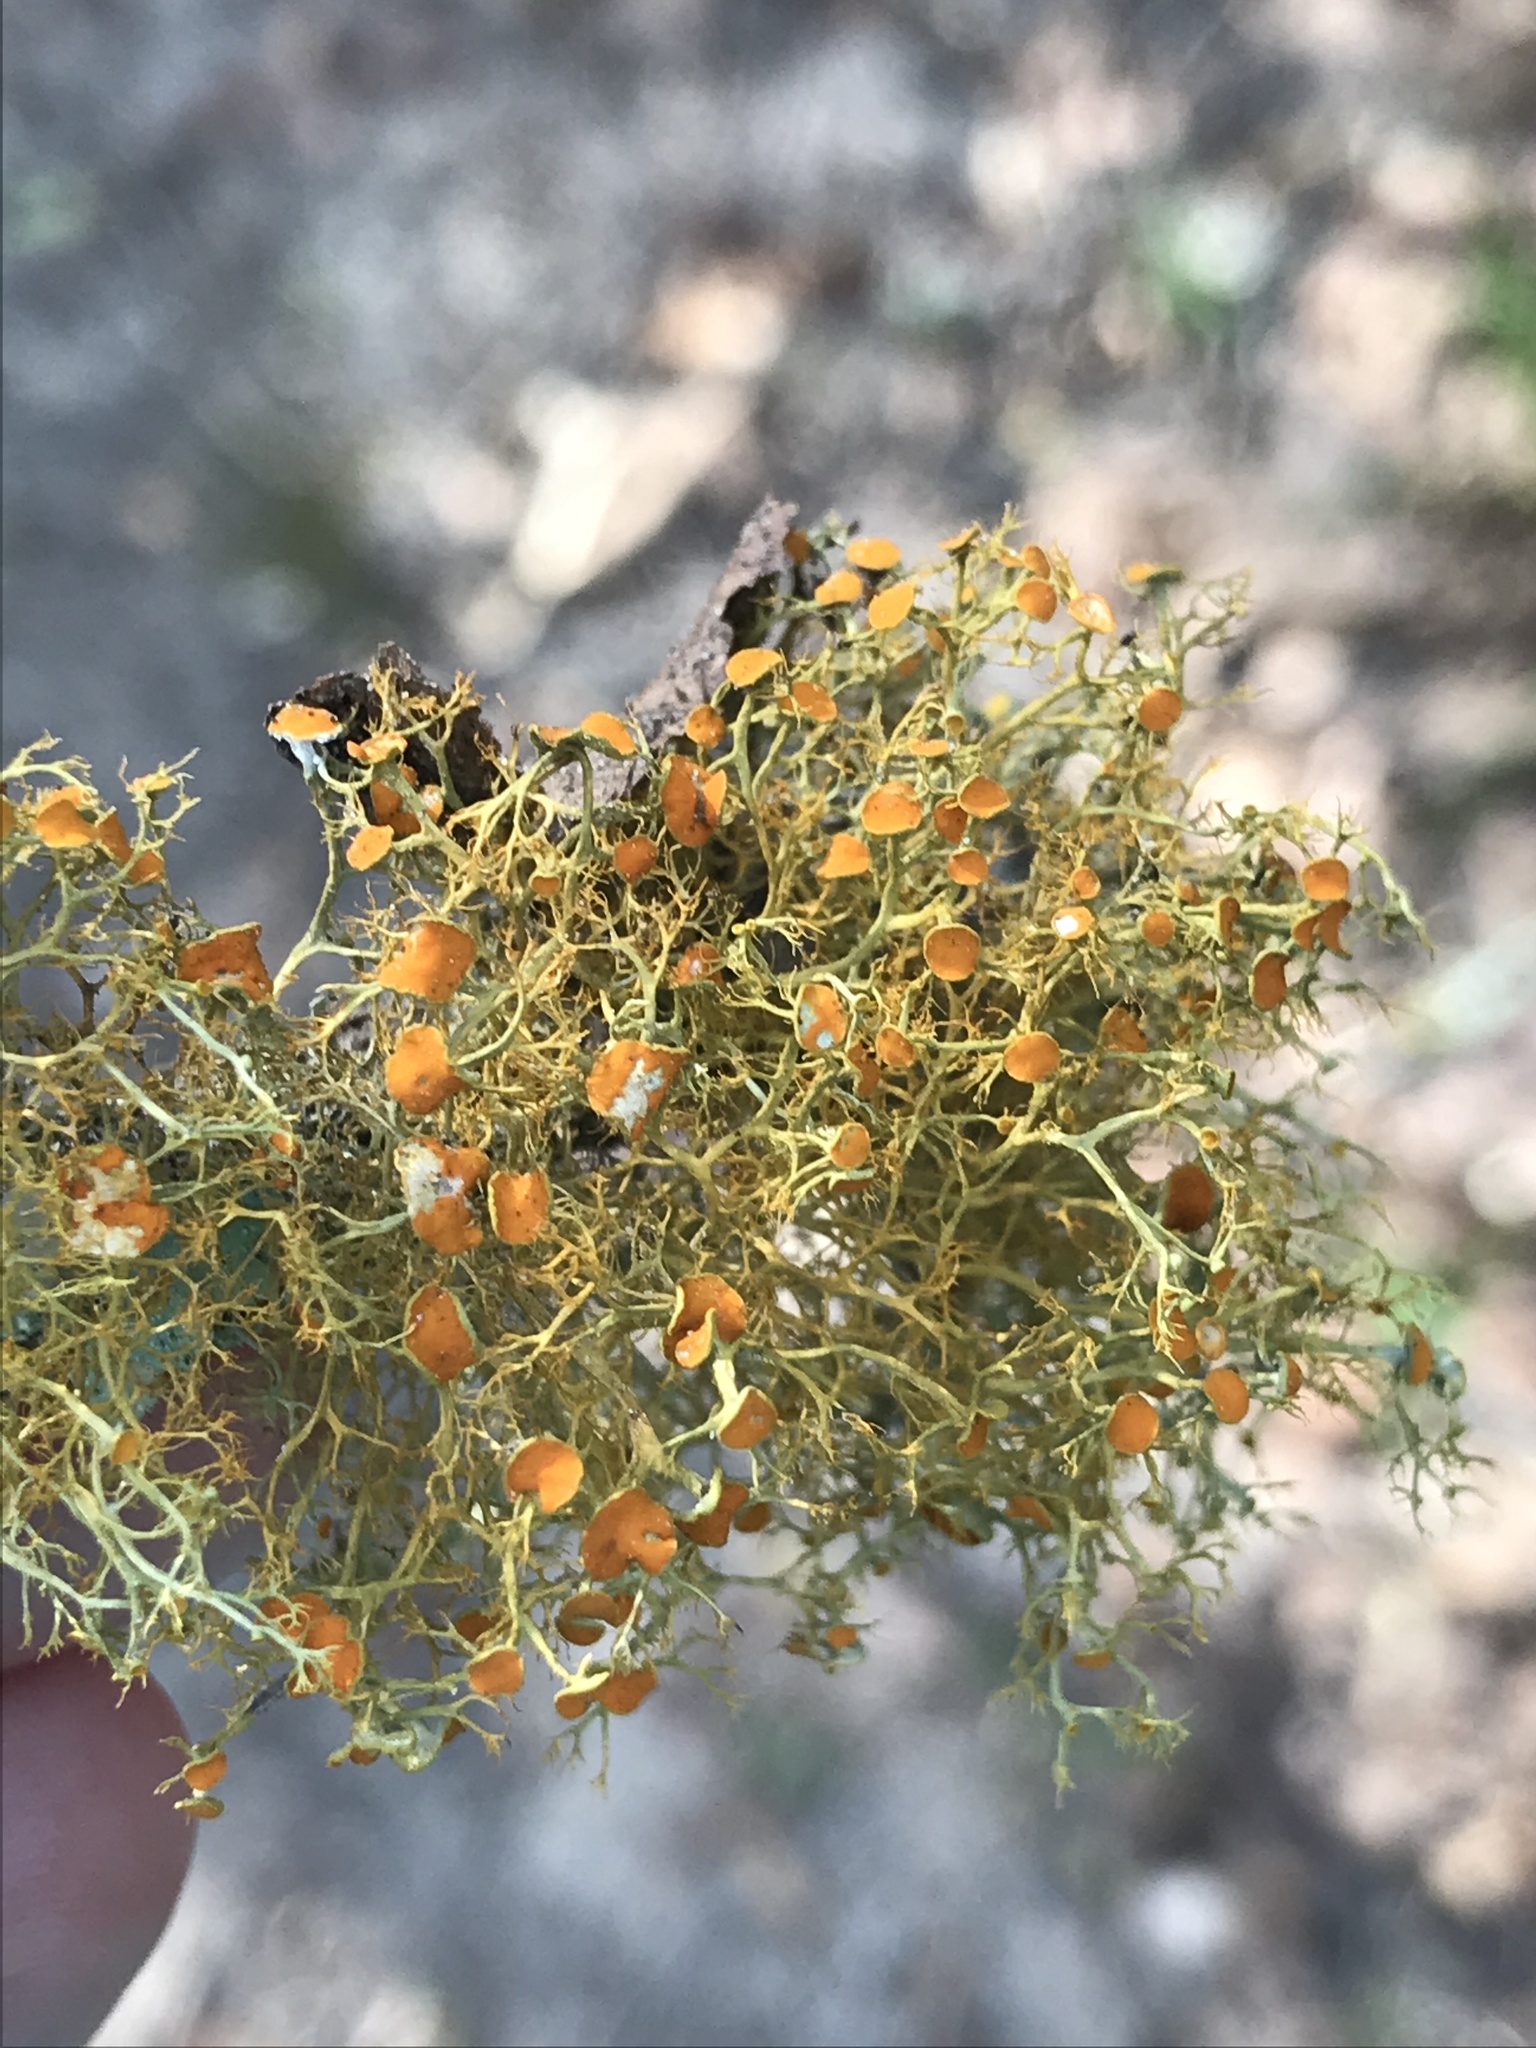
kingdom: Fungi
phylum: Ascomycota
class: Lecanoromycetes
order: Teloschistales
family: Teloschistaceae
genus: Teloschistes
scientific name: Teloschistes exilis
